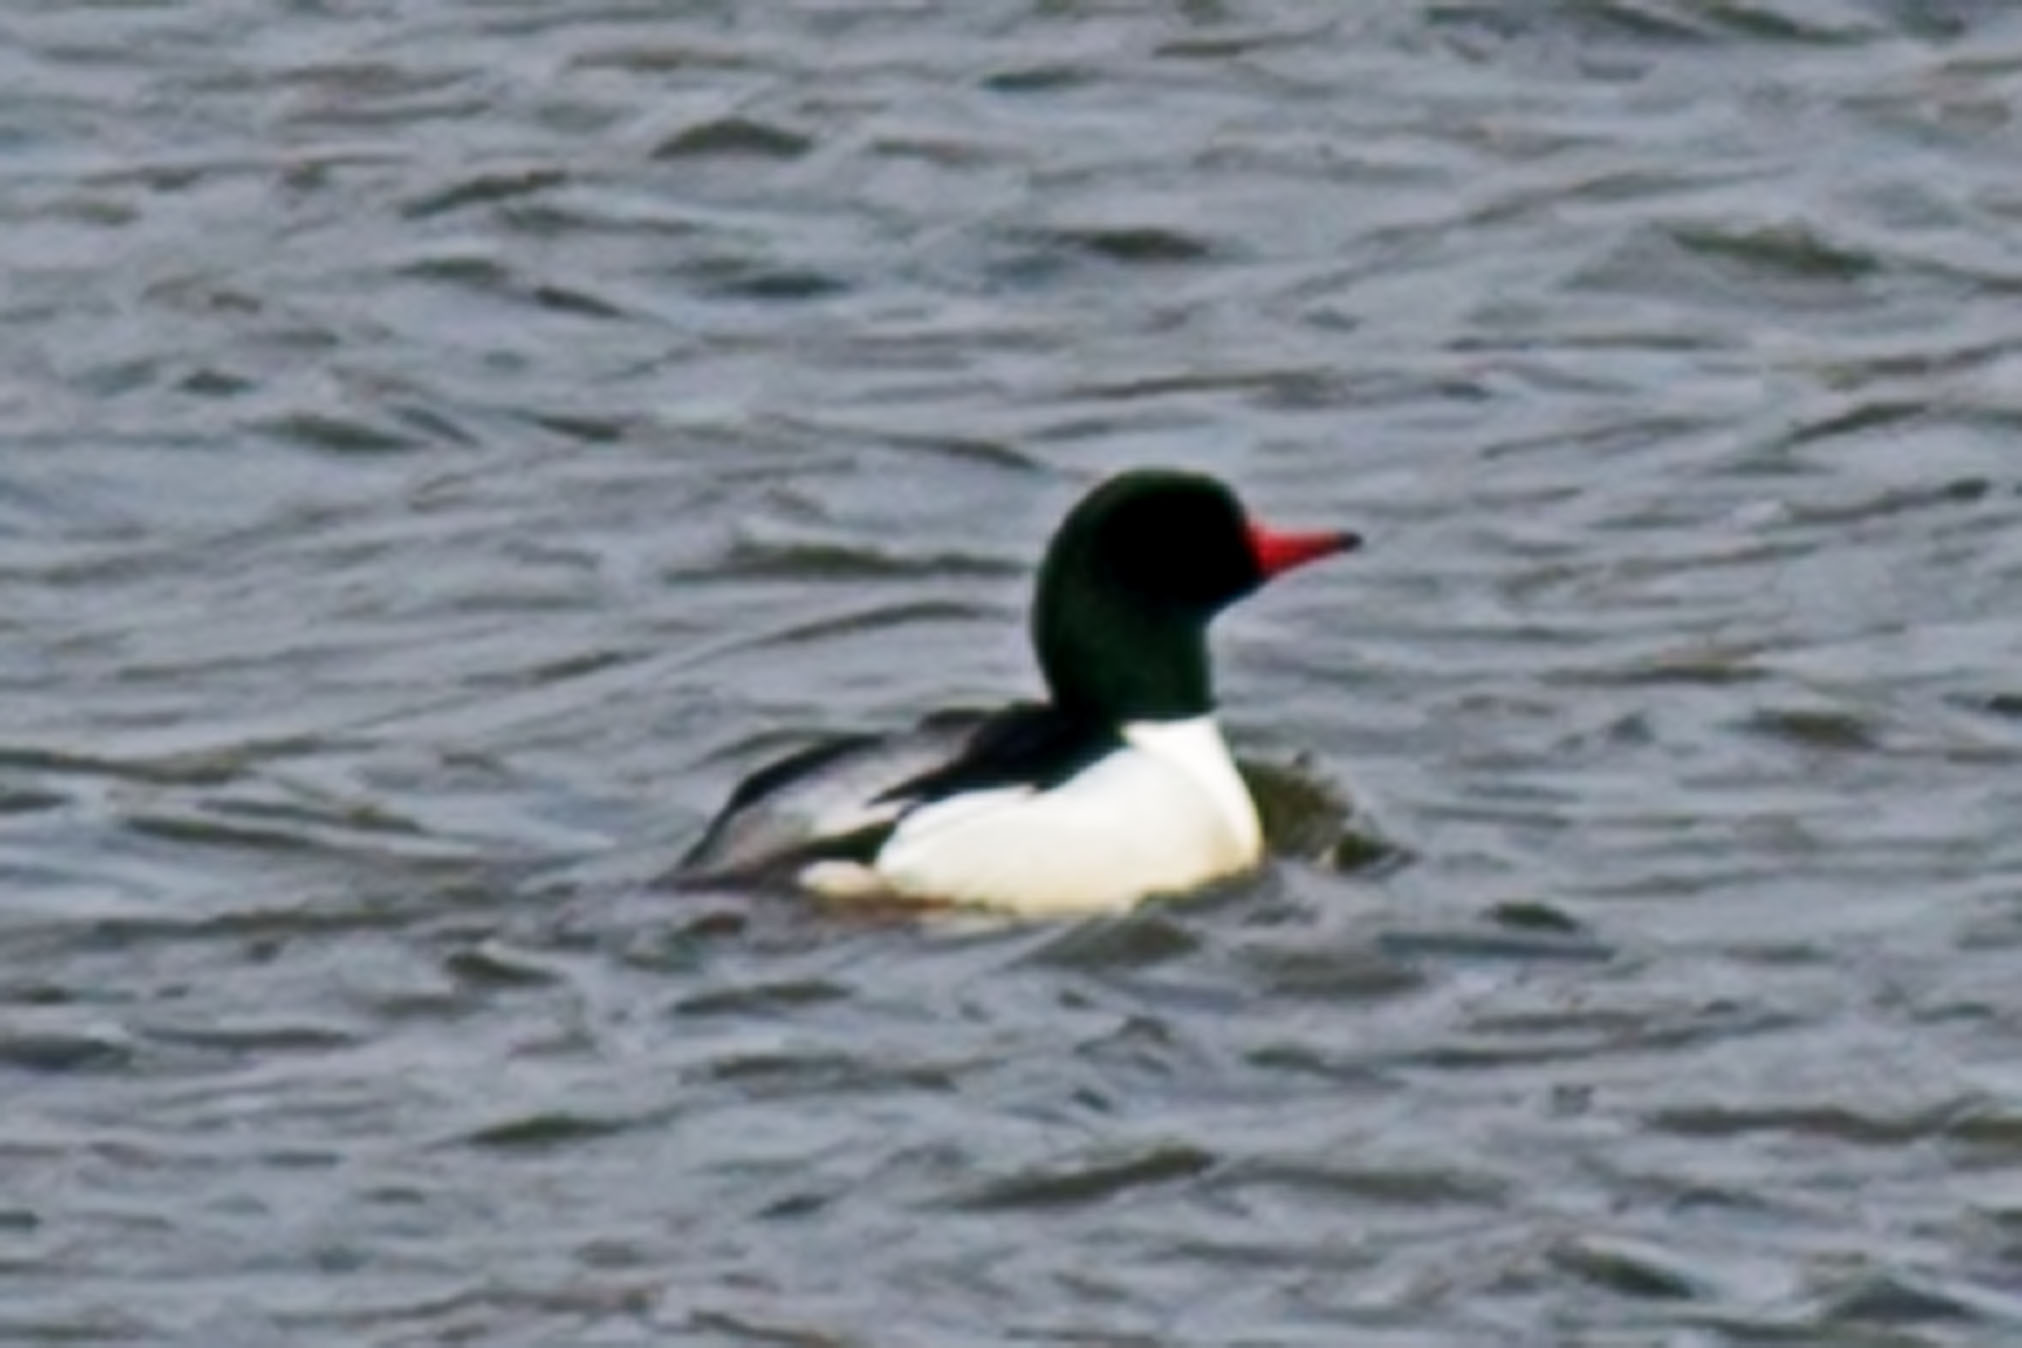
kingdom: Animalia
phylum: Chordata
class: Aves
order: Anseriformes
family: Anatidae
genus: Mergus
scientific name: Mergus merganser
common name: Common merganser
